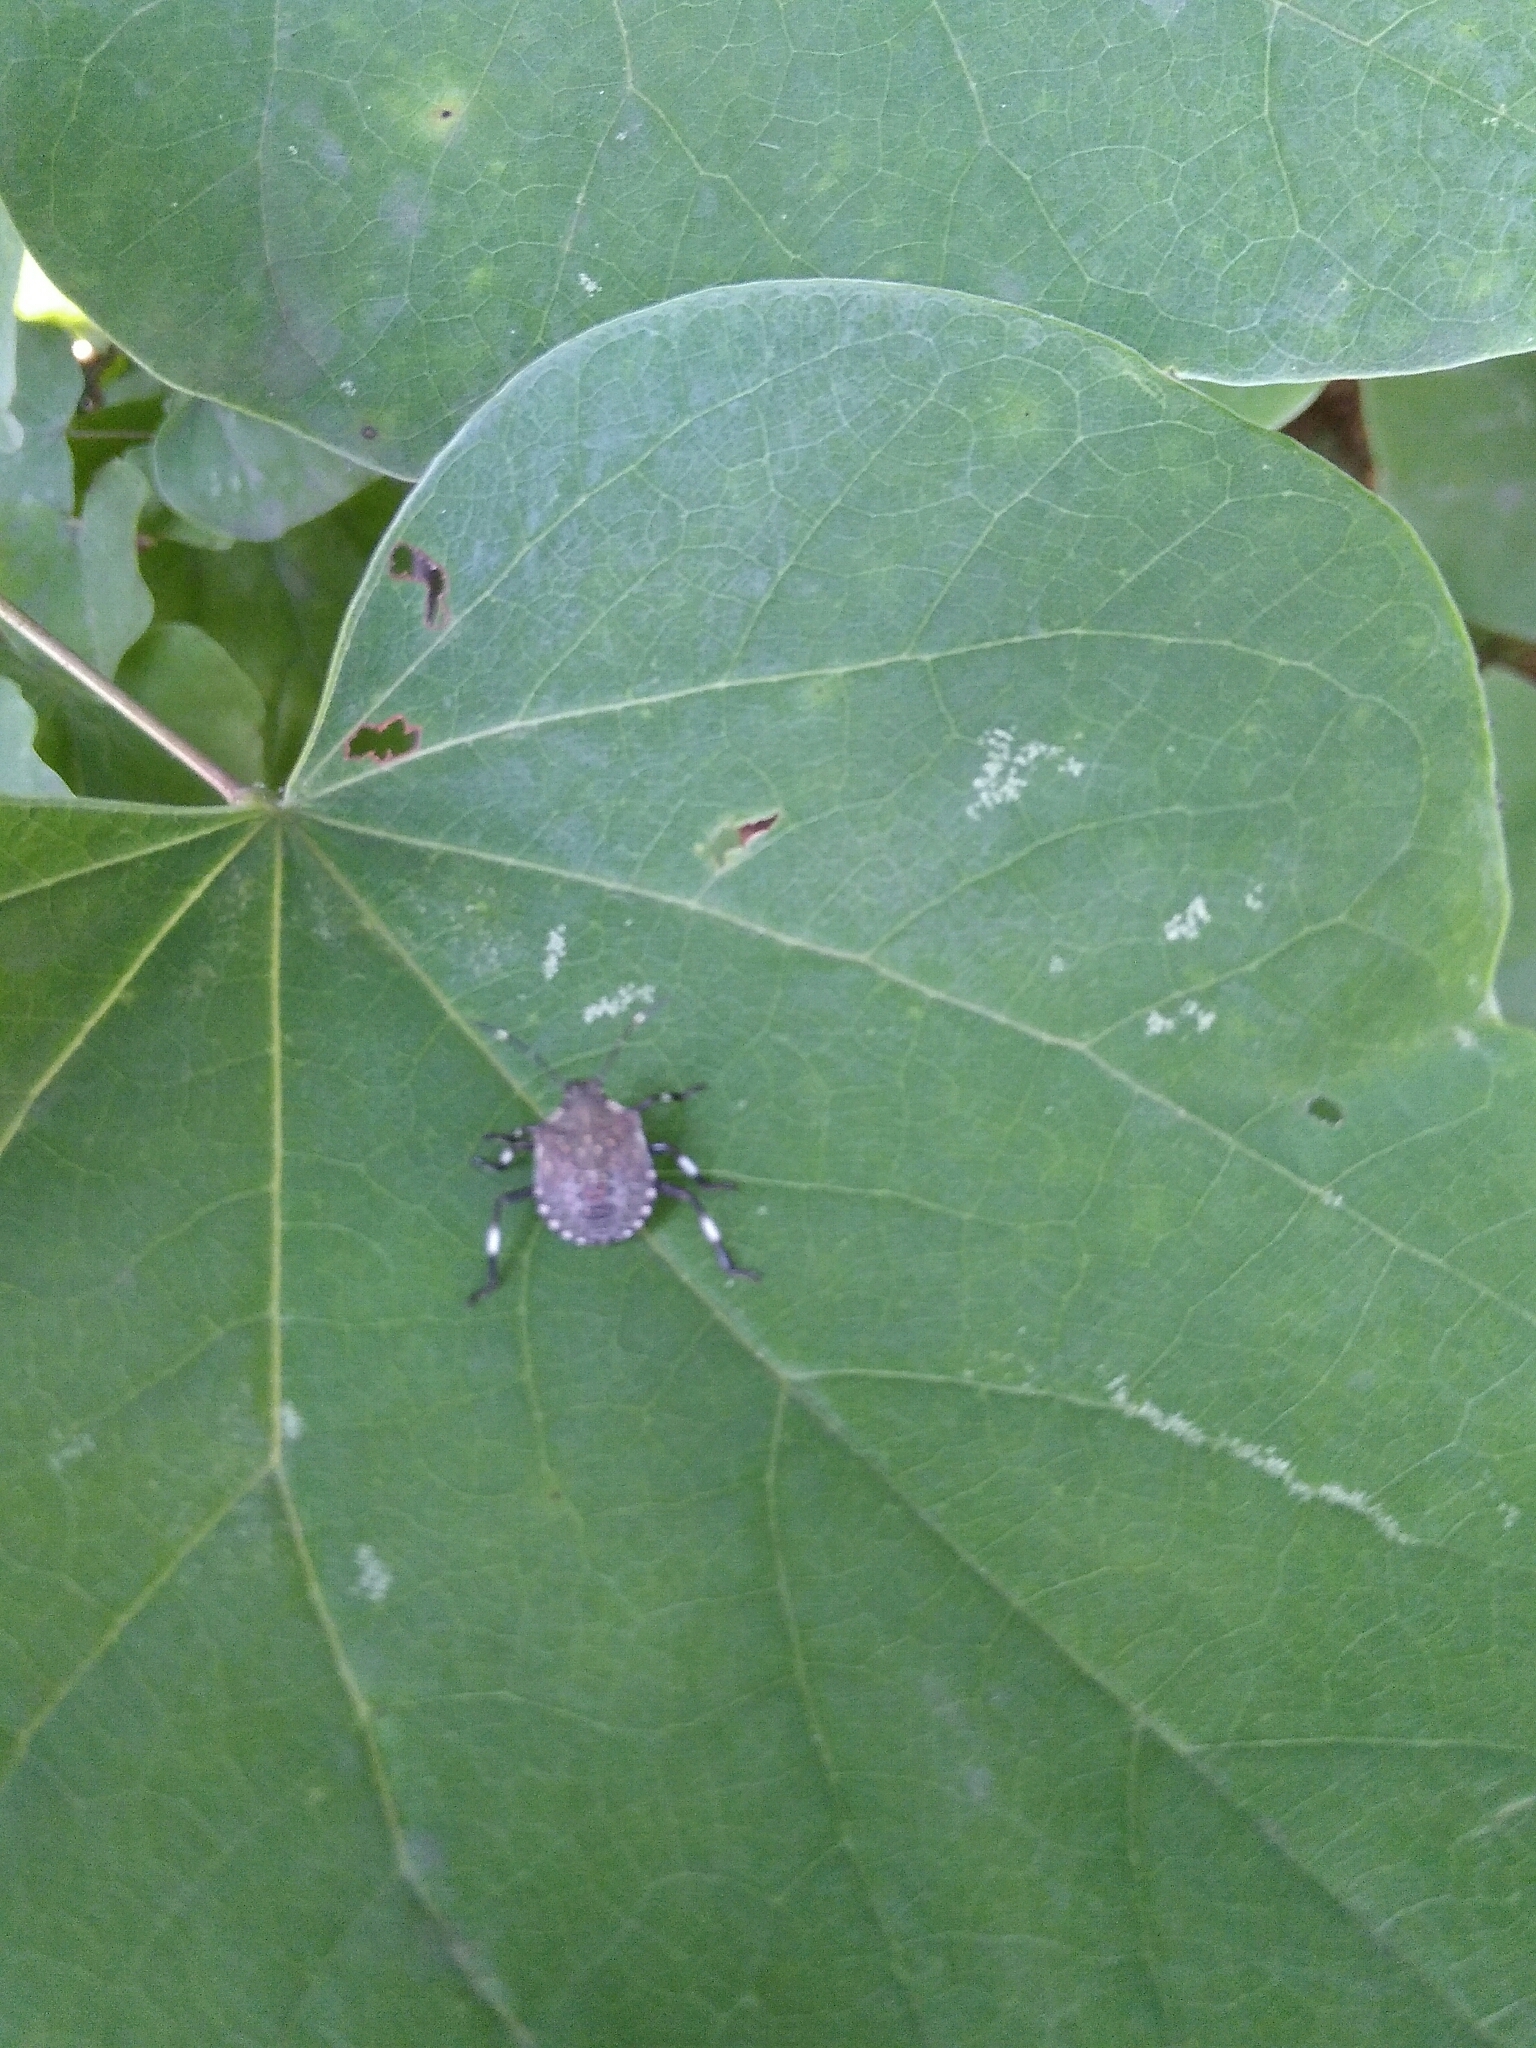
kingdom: Animalia
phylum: Arthropoda
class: Insecta
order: Hemiptera
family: Pentatomidae
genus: Halyomorpha
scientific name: Halyomorpha halys
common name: Brown marmorated stink bug
